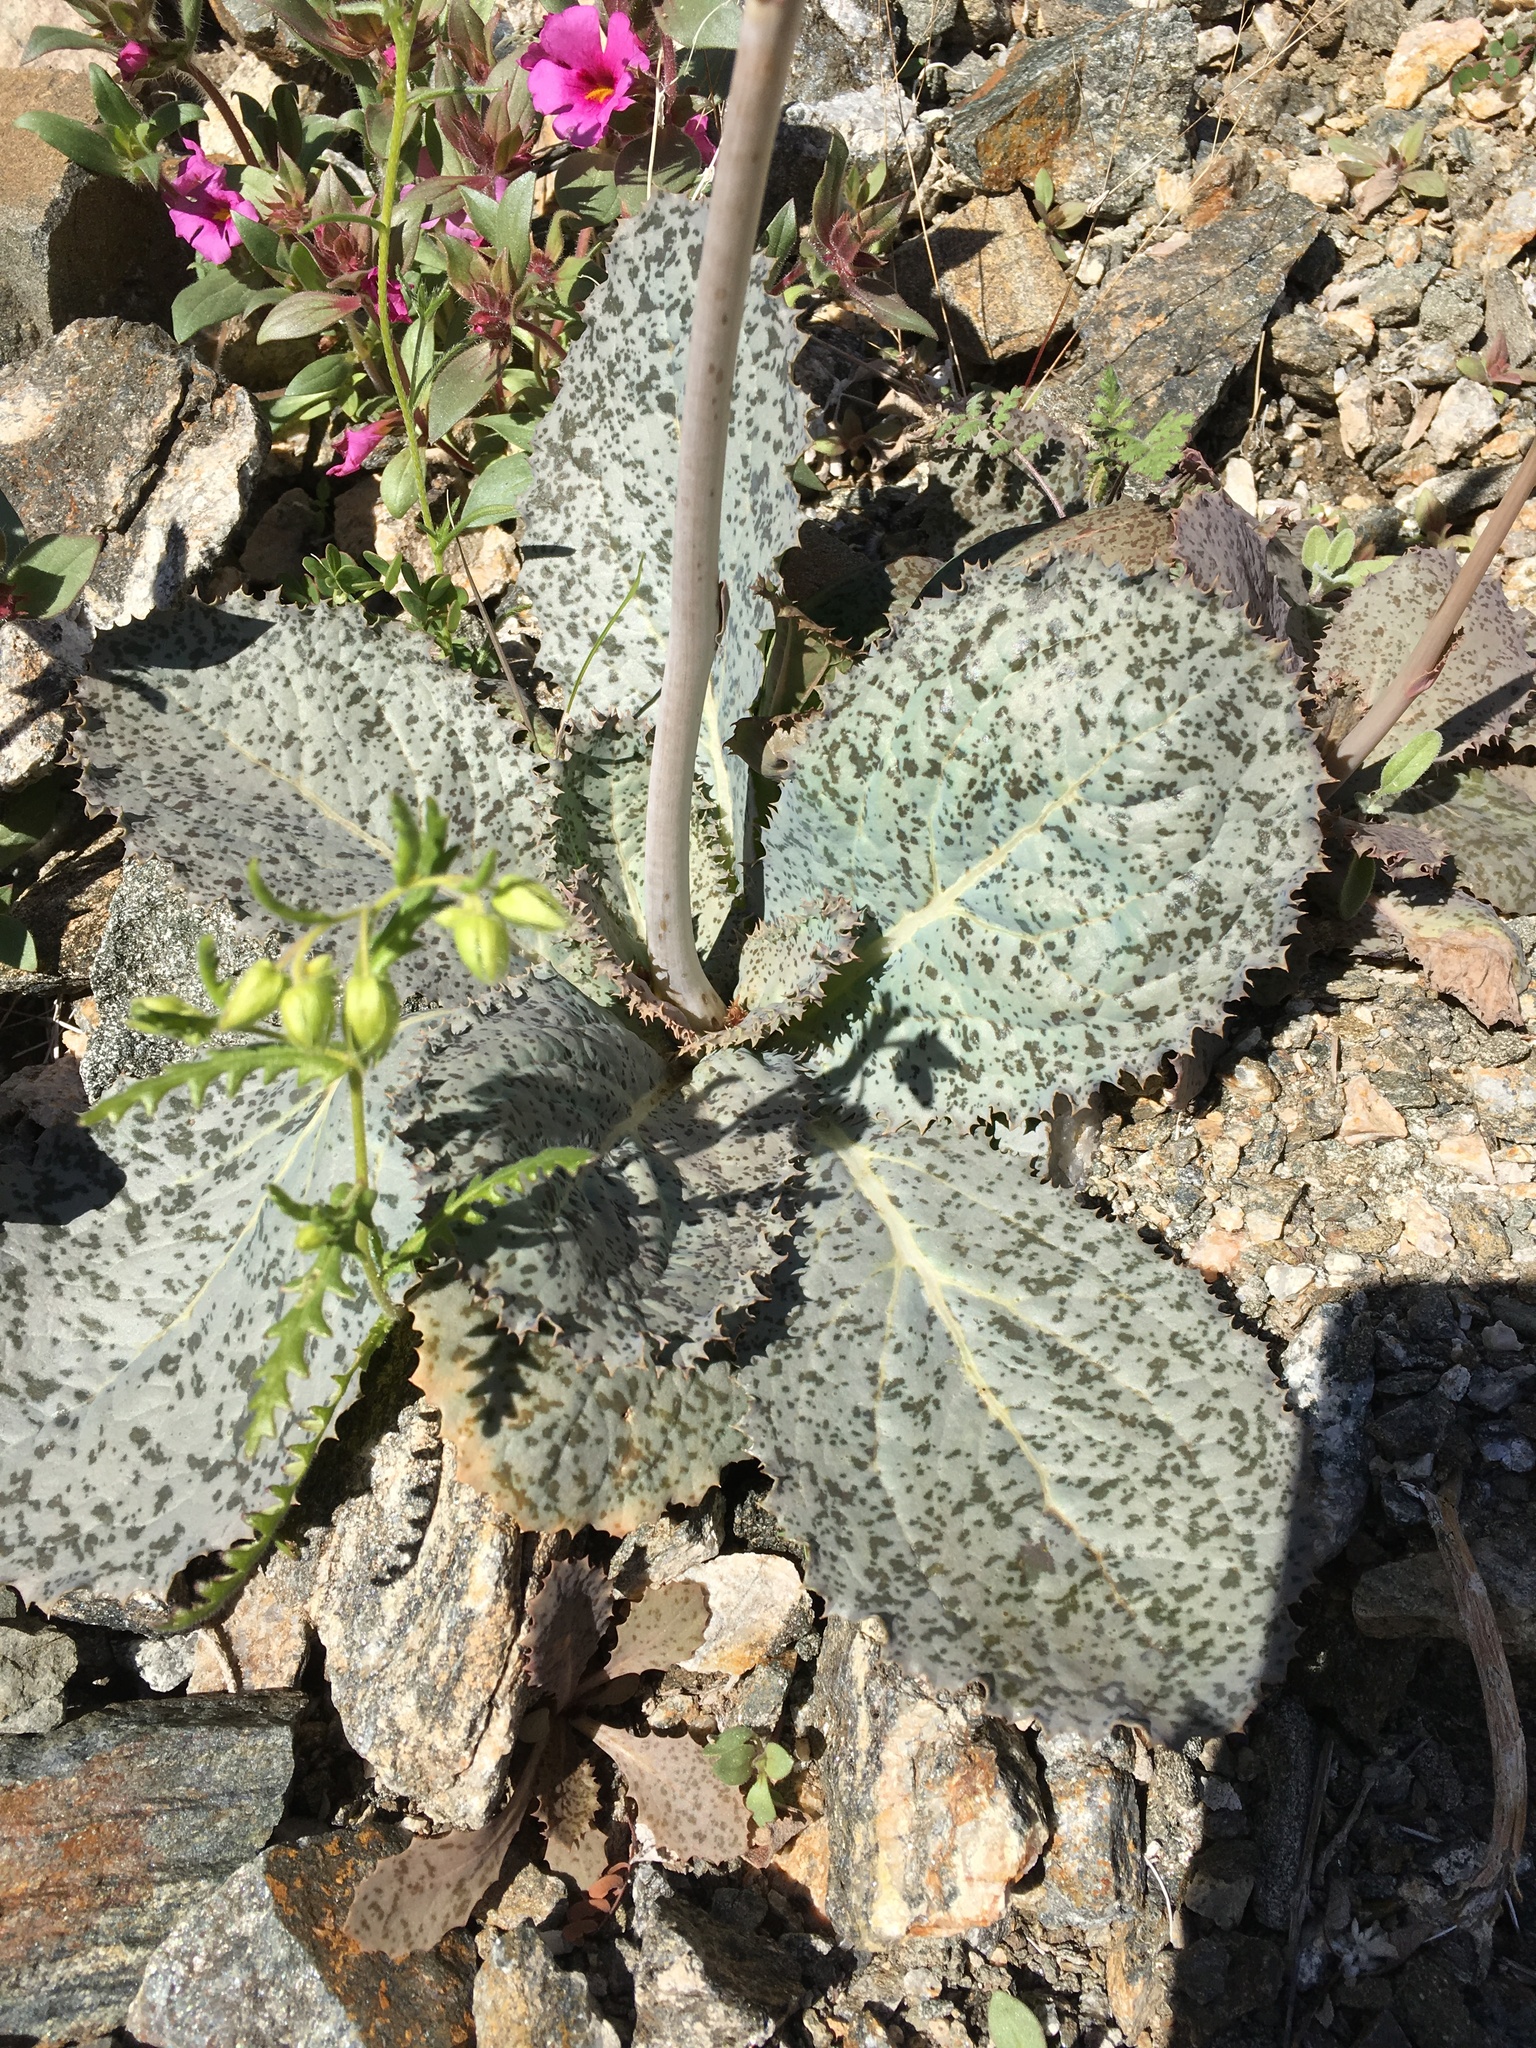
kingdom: Plantae
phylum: Tracheophyta
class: Magnoliopsida
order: Asterales
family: Asteraceae
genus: Atrichoseris
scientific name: Atrichoseris platyphylla
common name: Tobaccoweed
